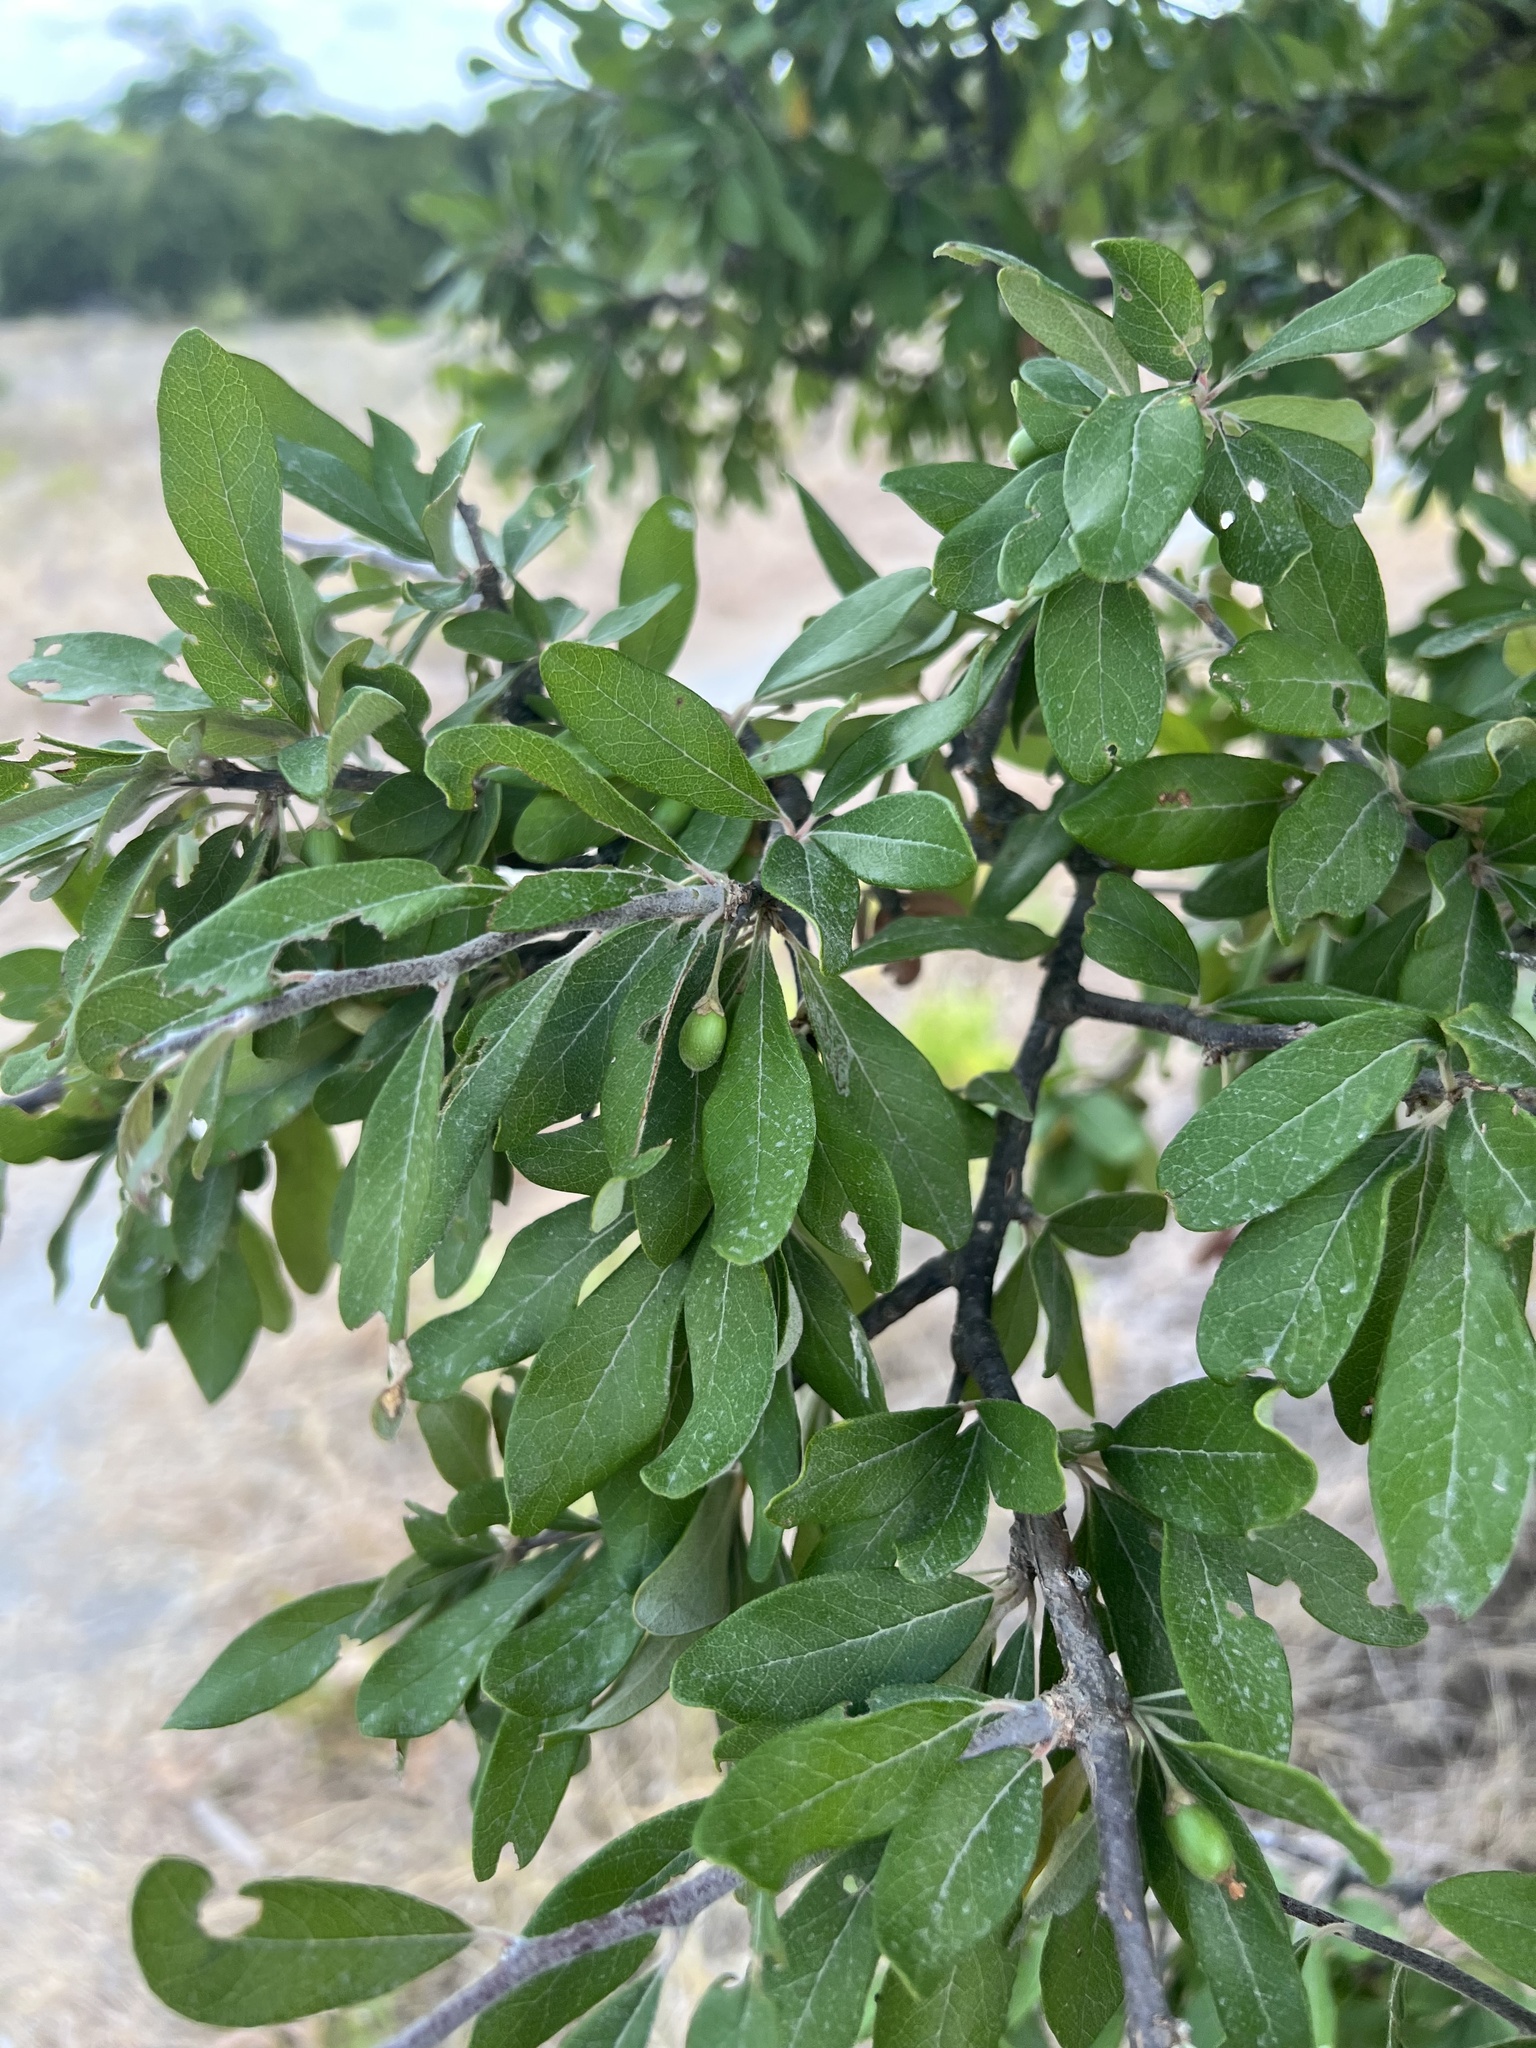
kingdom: Plantae
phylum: Tracheophyta
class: Magnoliopsida
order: Ericales
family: Sapotaceae
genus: Sideroxylon
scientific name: Sideroxylon lanuginosum
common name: Chittamwood
